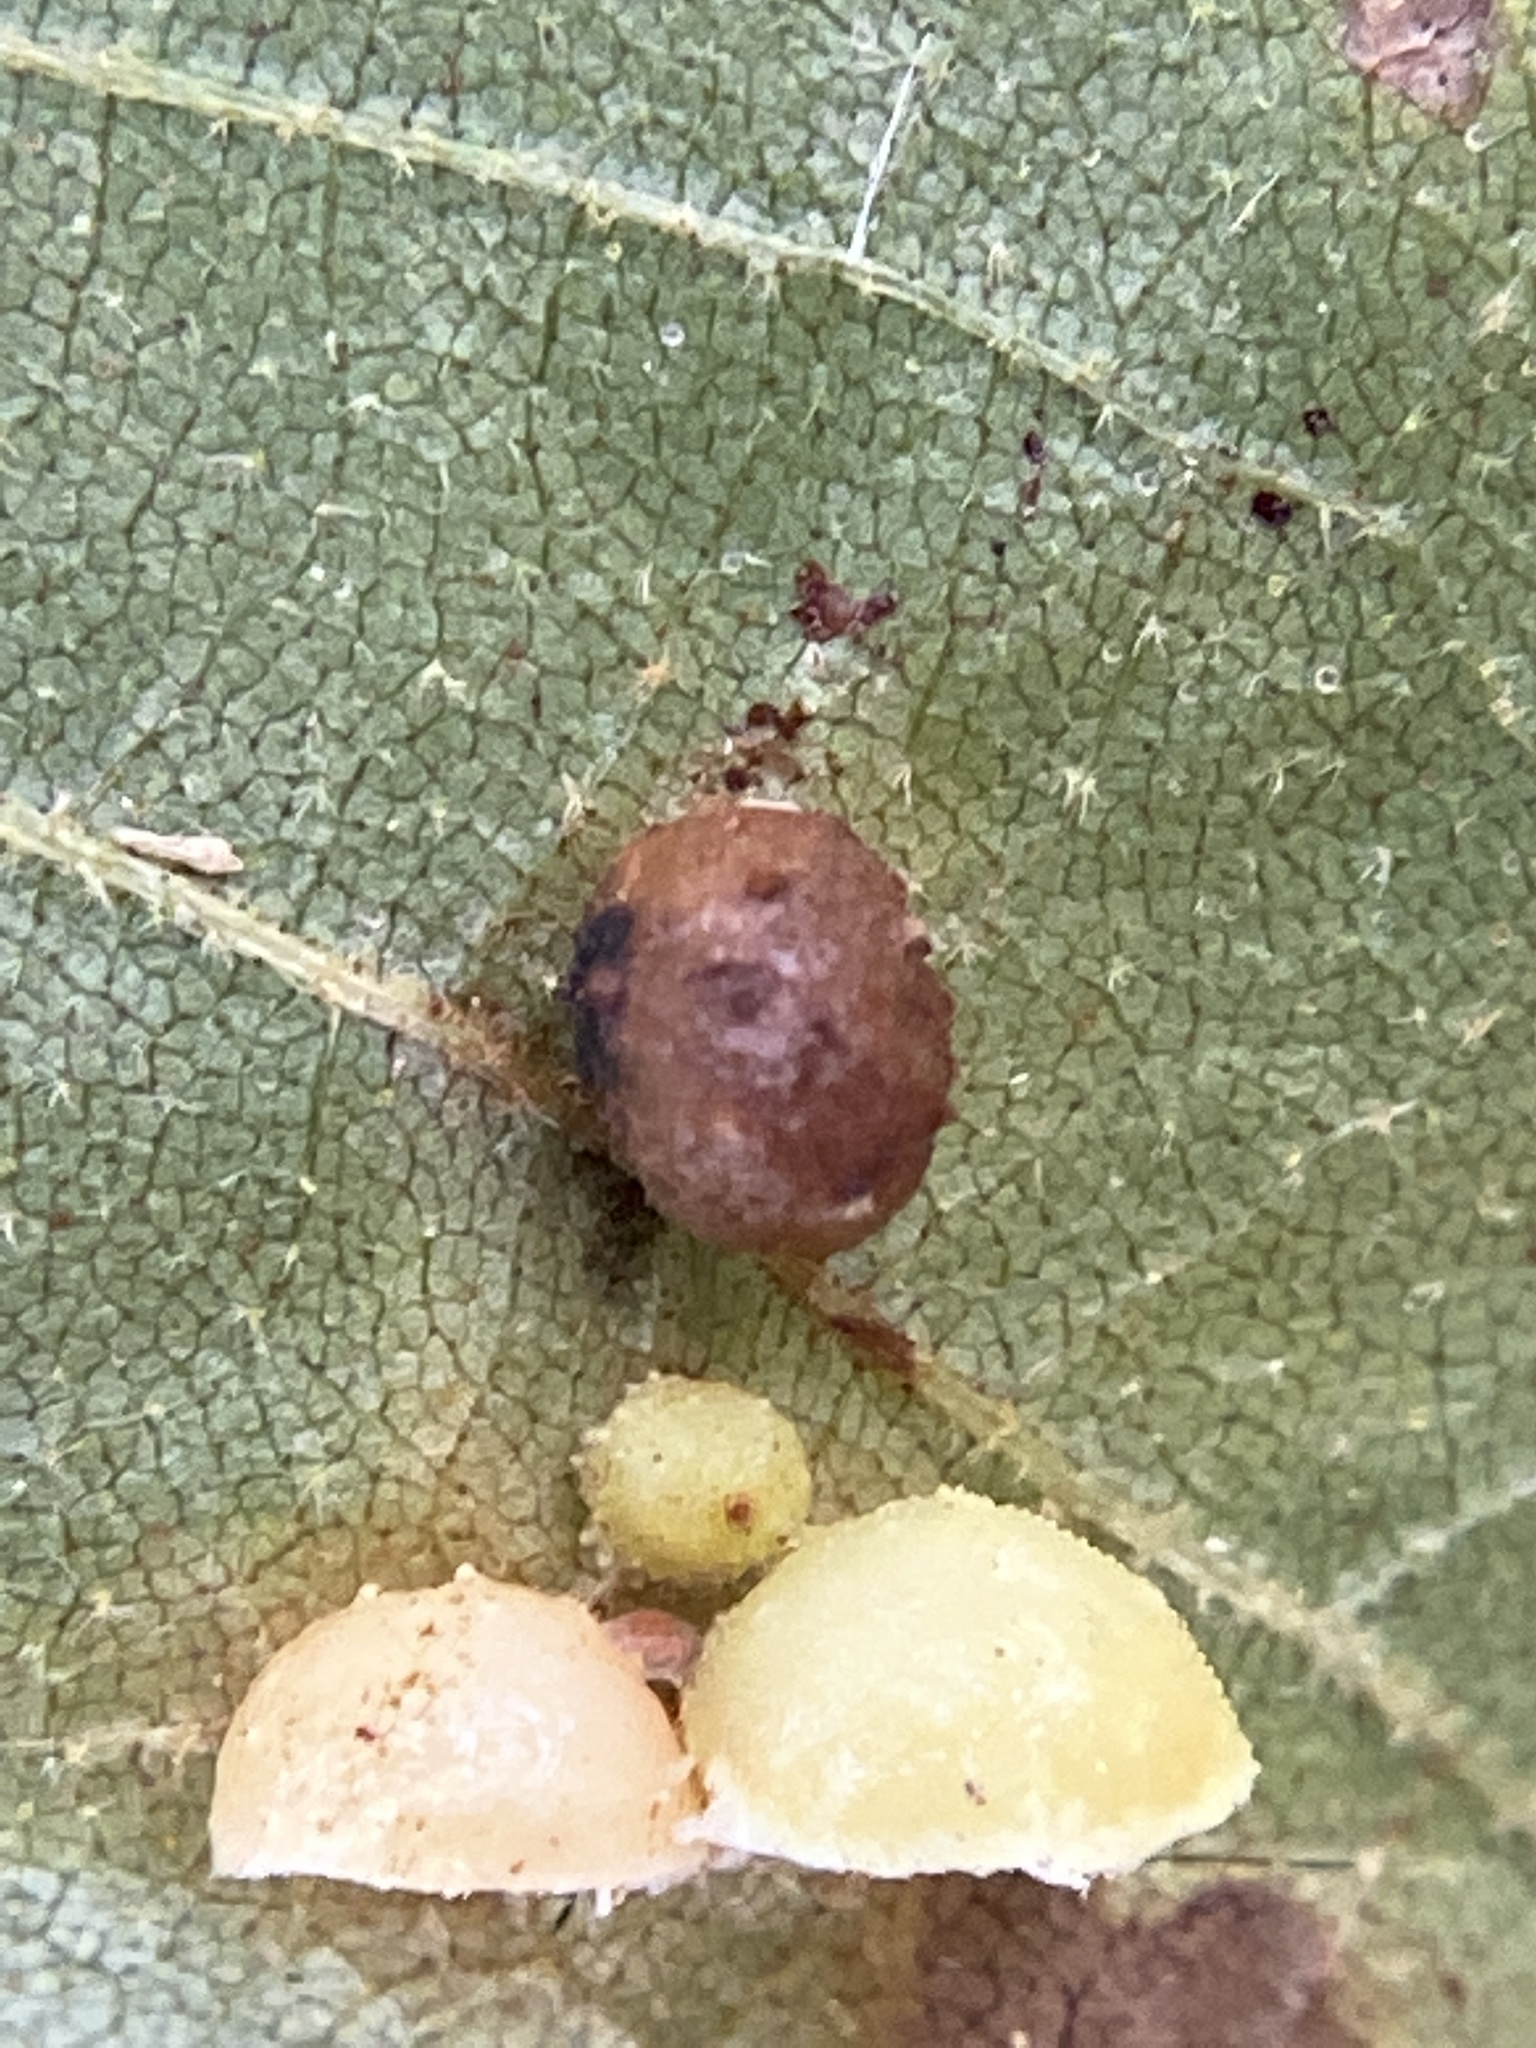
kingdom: Animalia
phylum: Arthropoda
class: Insecta
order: Diptera
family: Cecidomyiidae
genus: Caryomyia
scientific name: Caryomyia tuberculata
